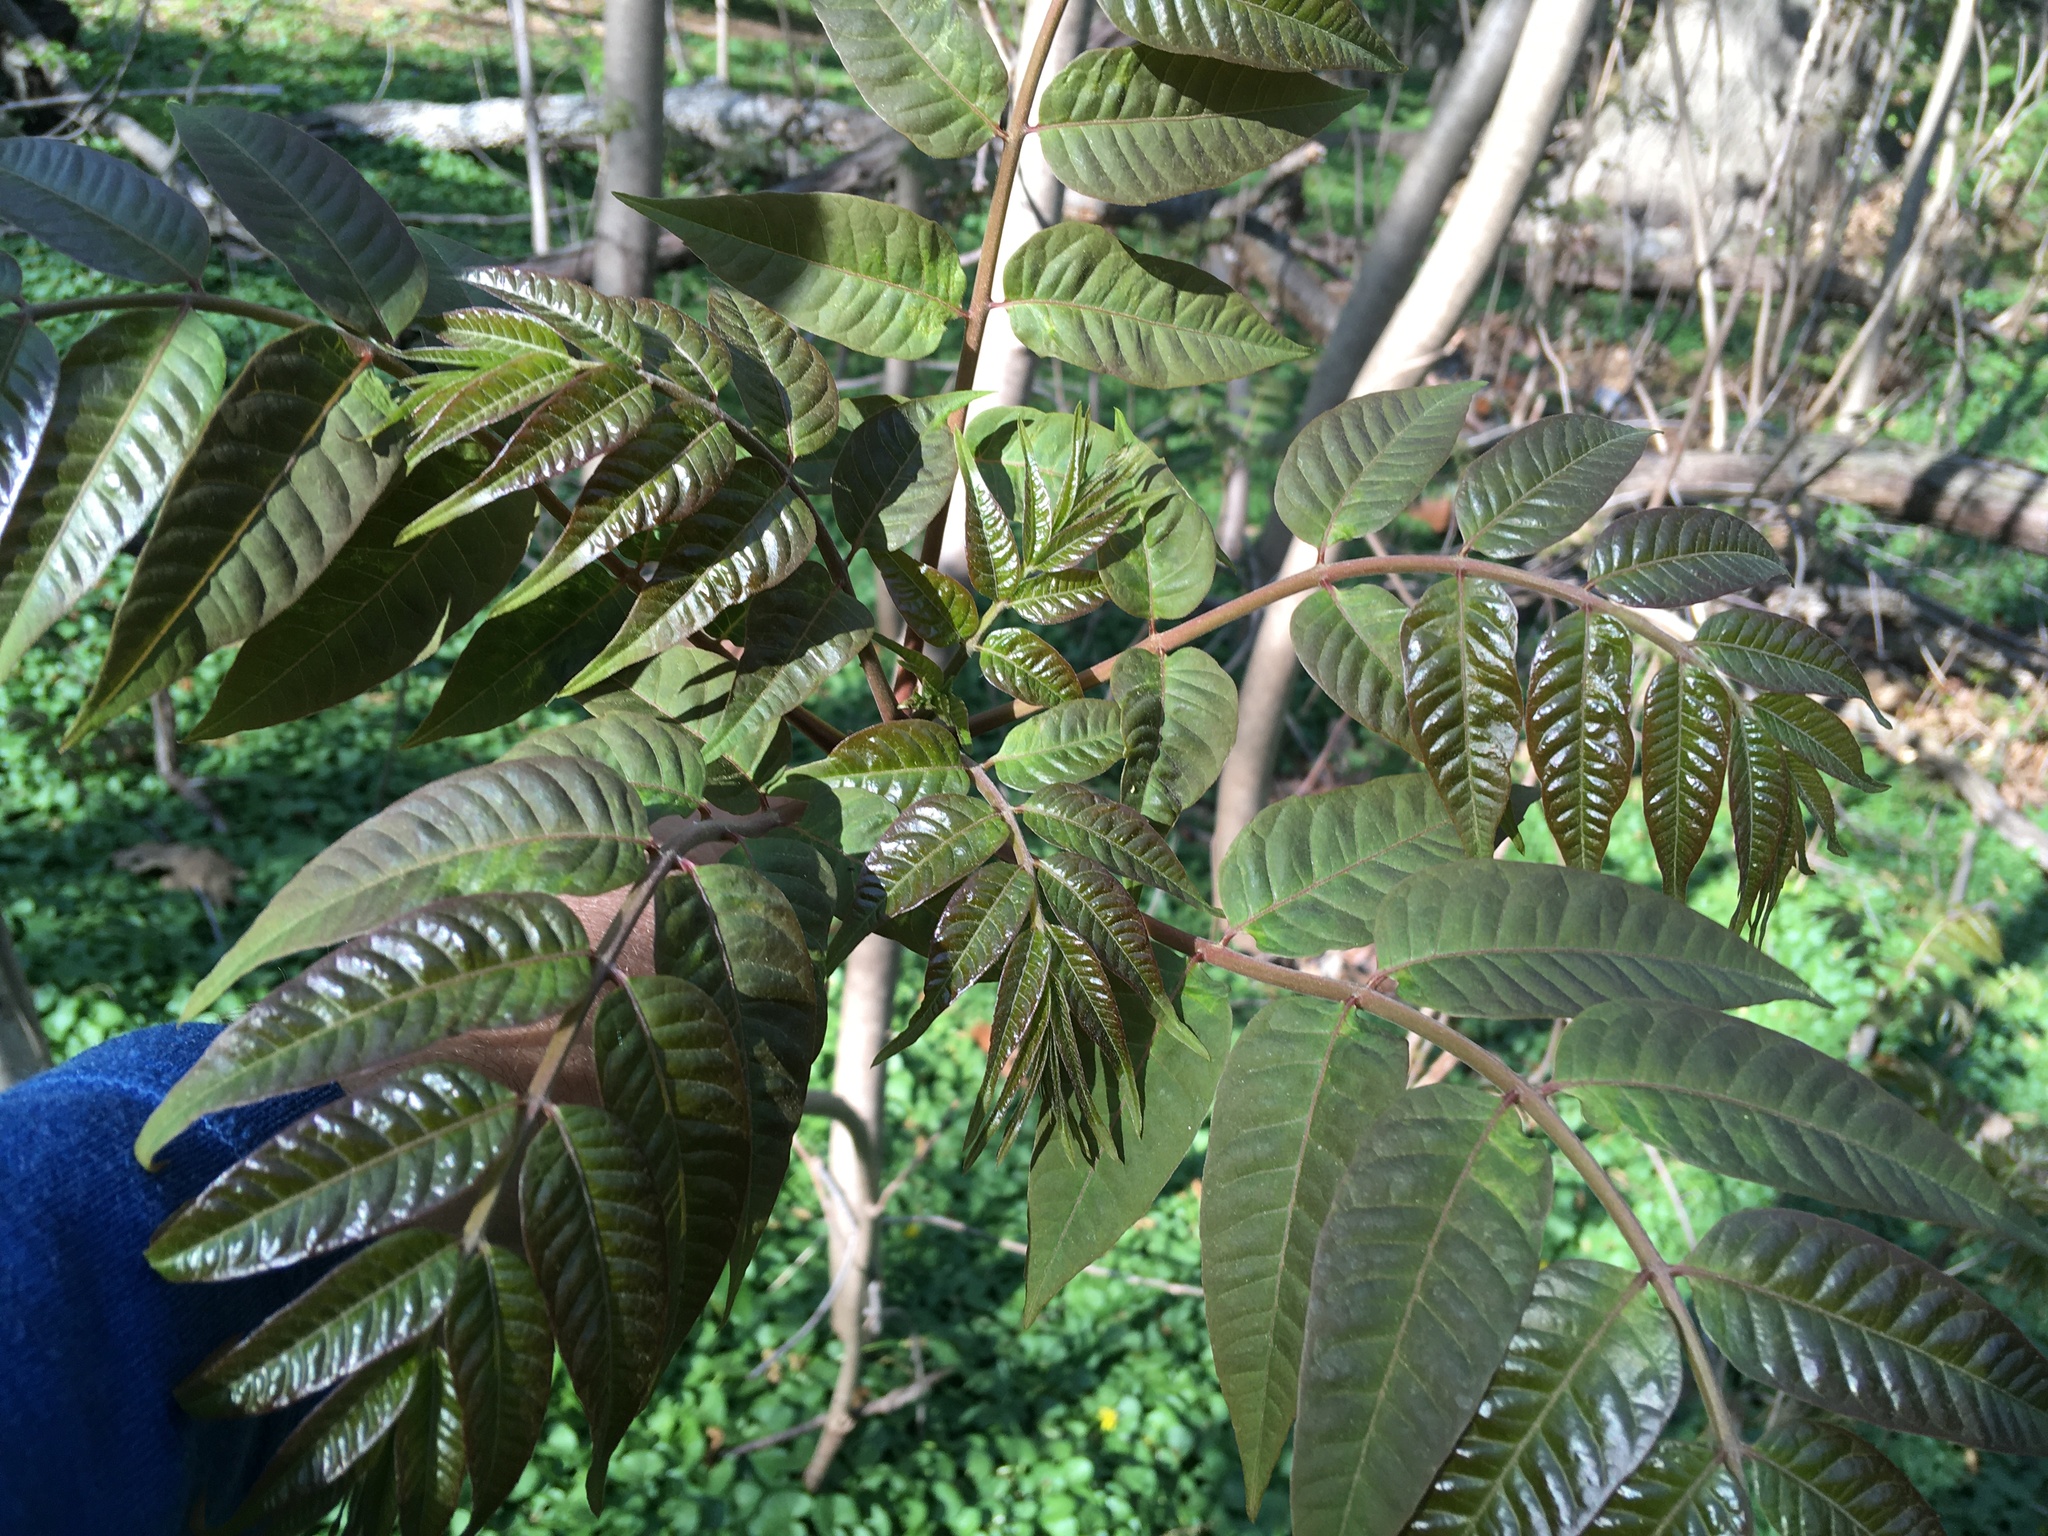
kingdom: Plantae
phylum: Tracheophyta
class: Magnoliopsida
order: Sapindales
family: Meliaceae
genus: Toona
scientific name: Toona sinensis
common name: Red toon
